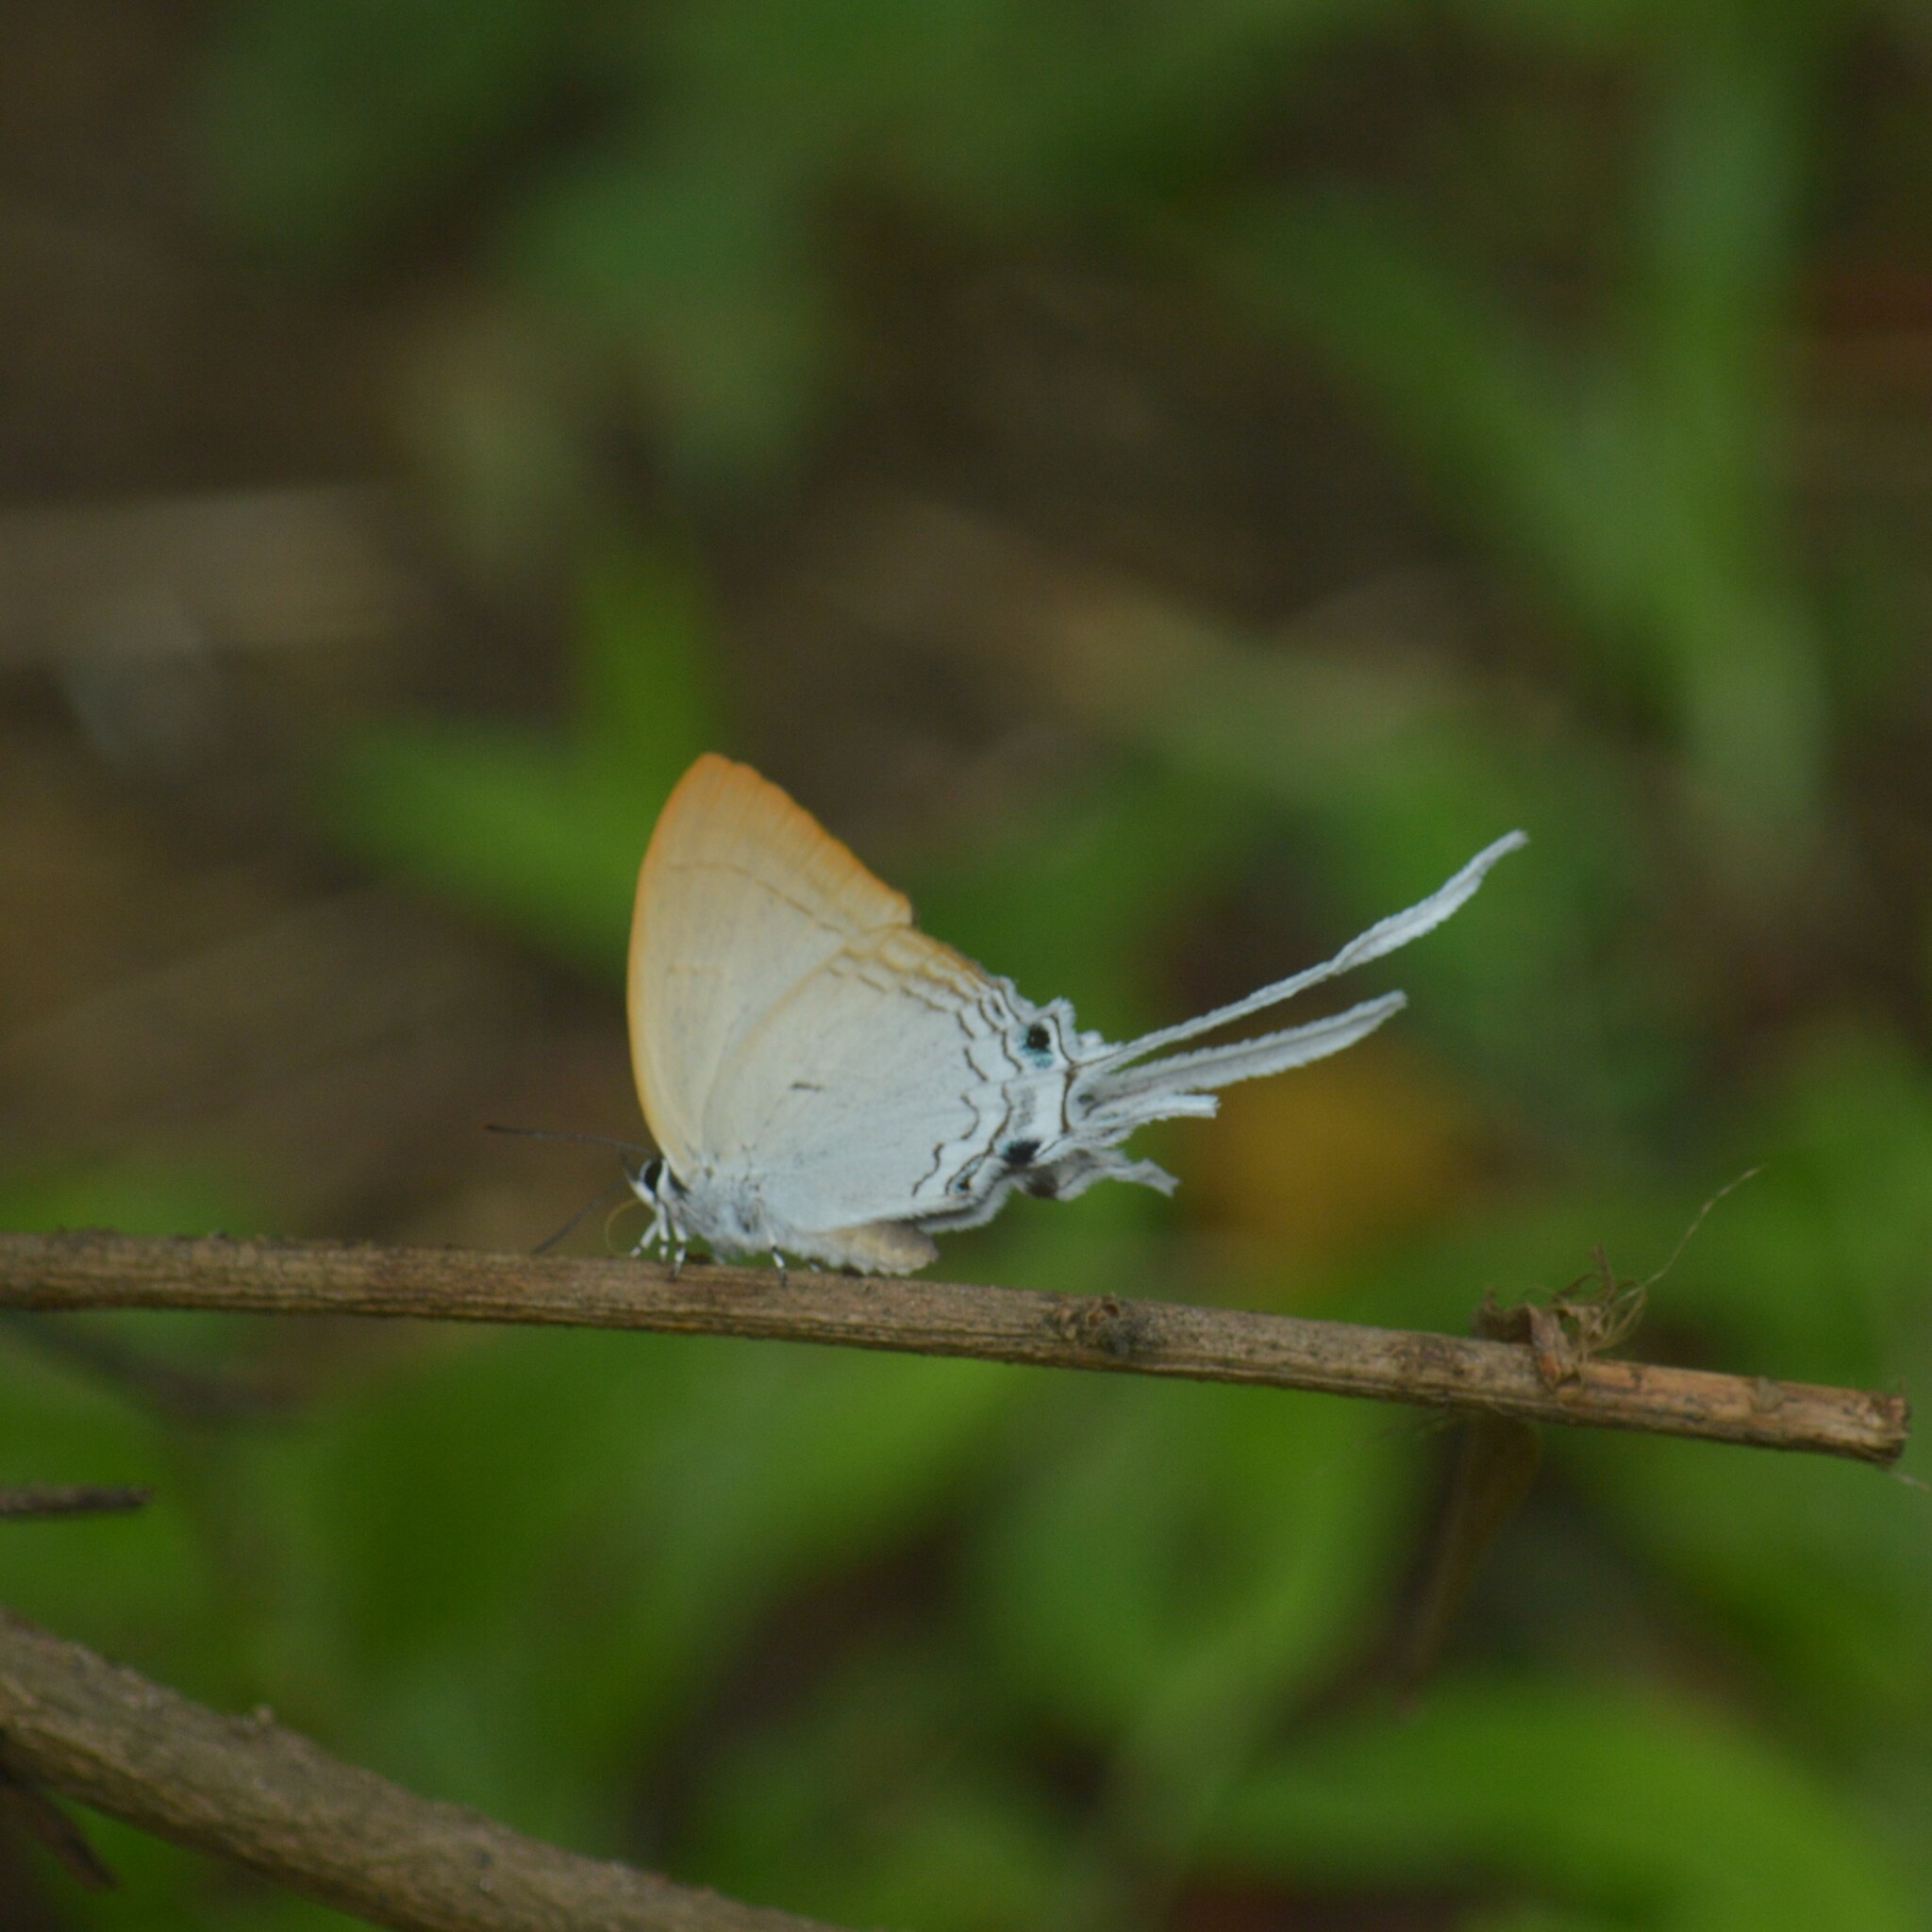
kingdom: Animalia
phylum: Arthropoda
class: Insecta
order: Lepidoptera
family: Lycaenidae
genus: Cheritra
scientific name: Cheritra freja
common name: Common imperial
